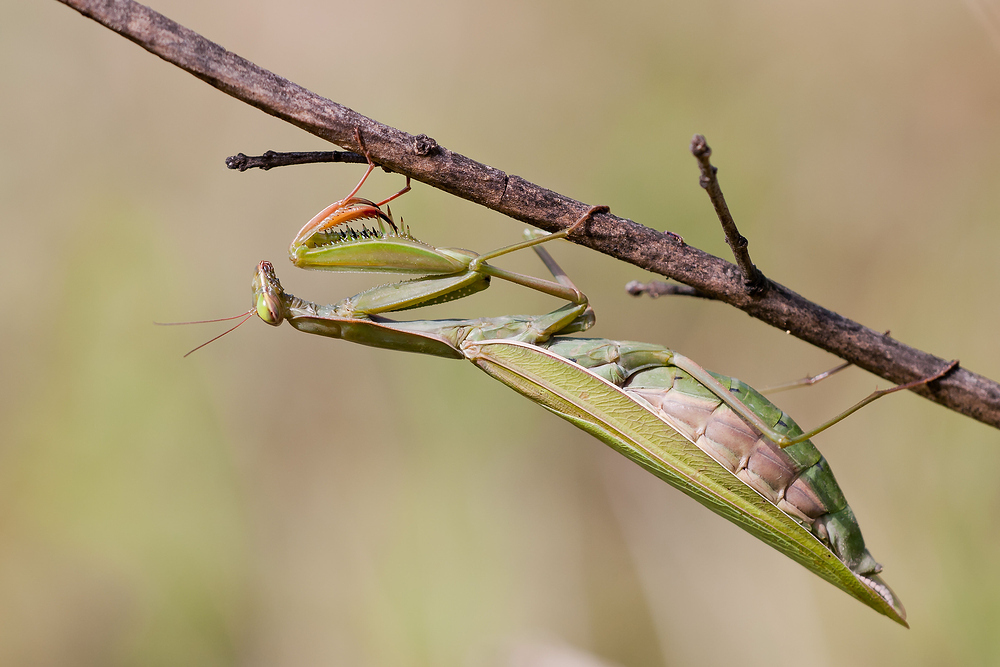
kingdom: Animalia
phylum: Arthropoda
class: Insecta
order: Mantodea
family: Mantidae
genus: Mantis
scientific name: Mantis religiosa
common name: Praying mantis
